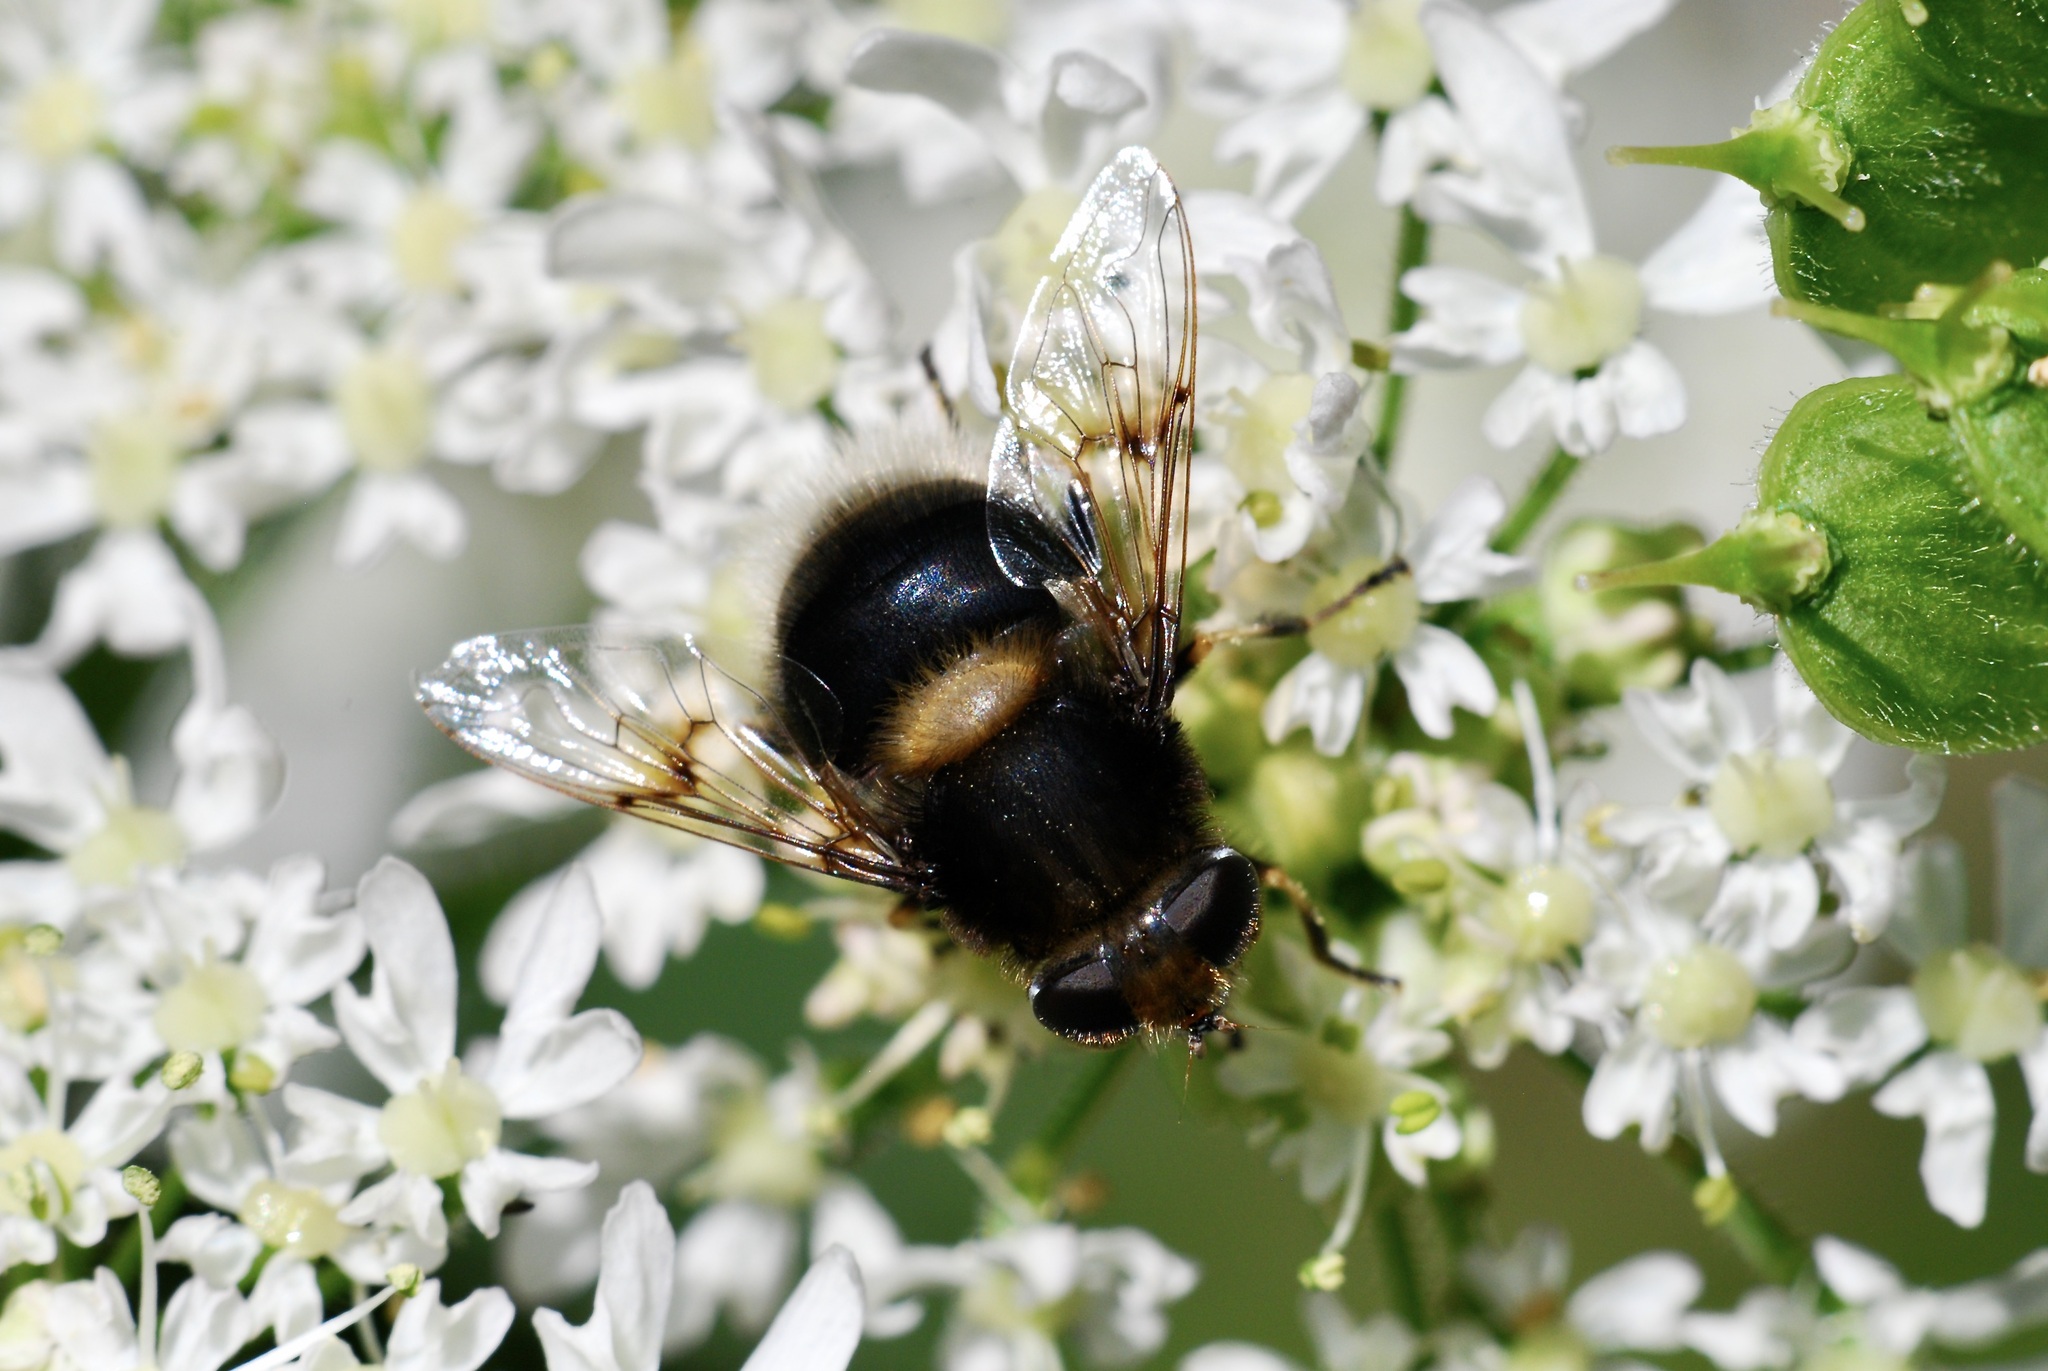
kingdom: Animalia
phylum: Arthropoda
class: Insecta
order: Diptera
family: Syrphidae
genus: Eristalis
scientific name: Eristalis intricaria
